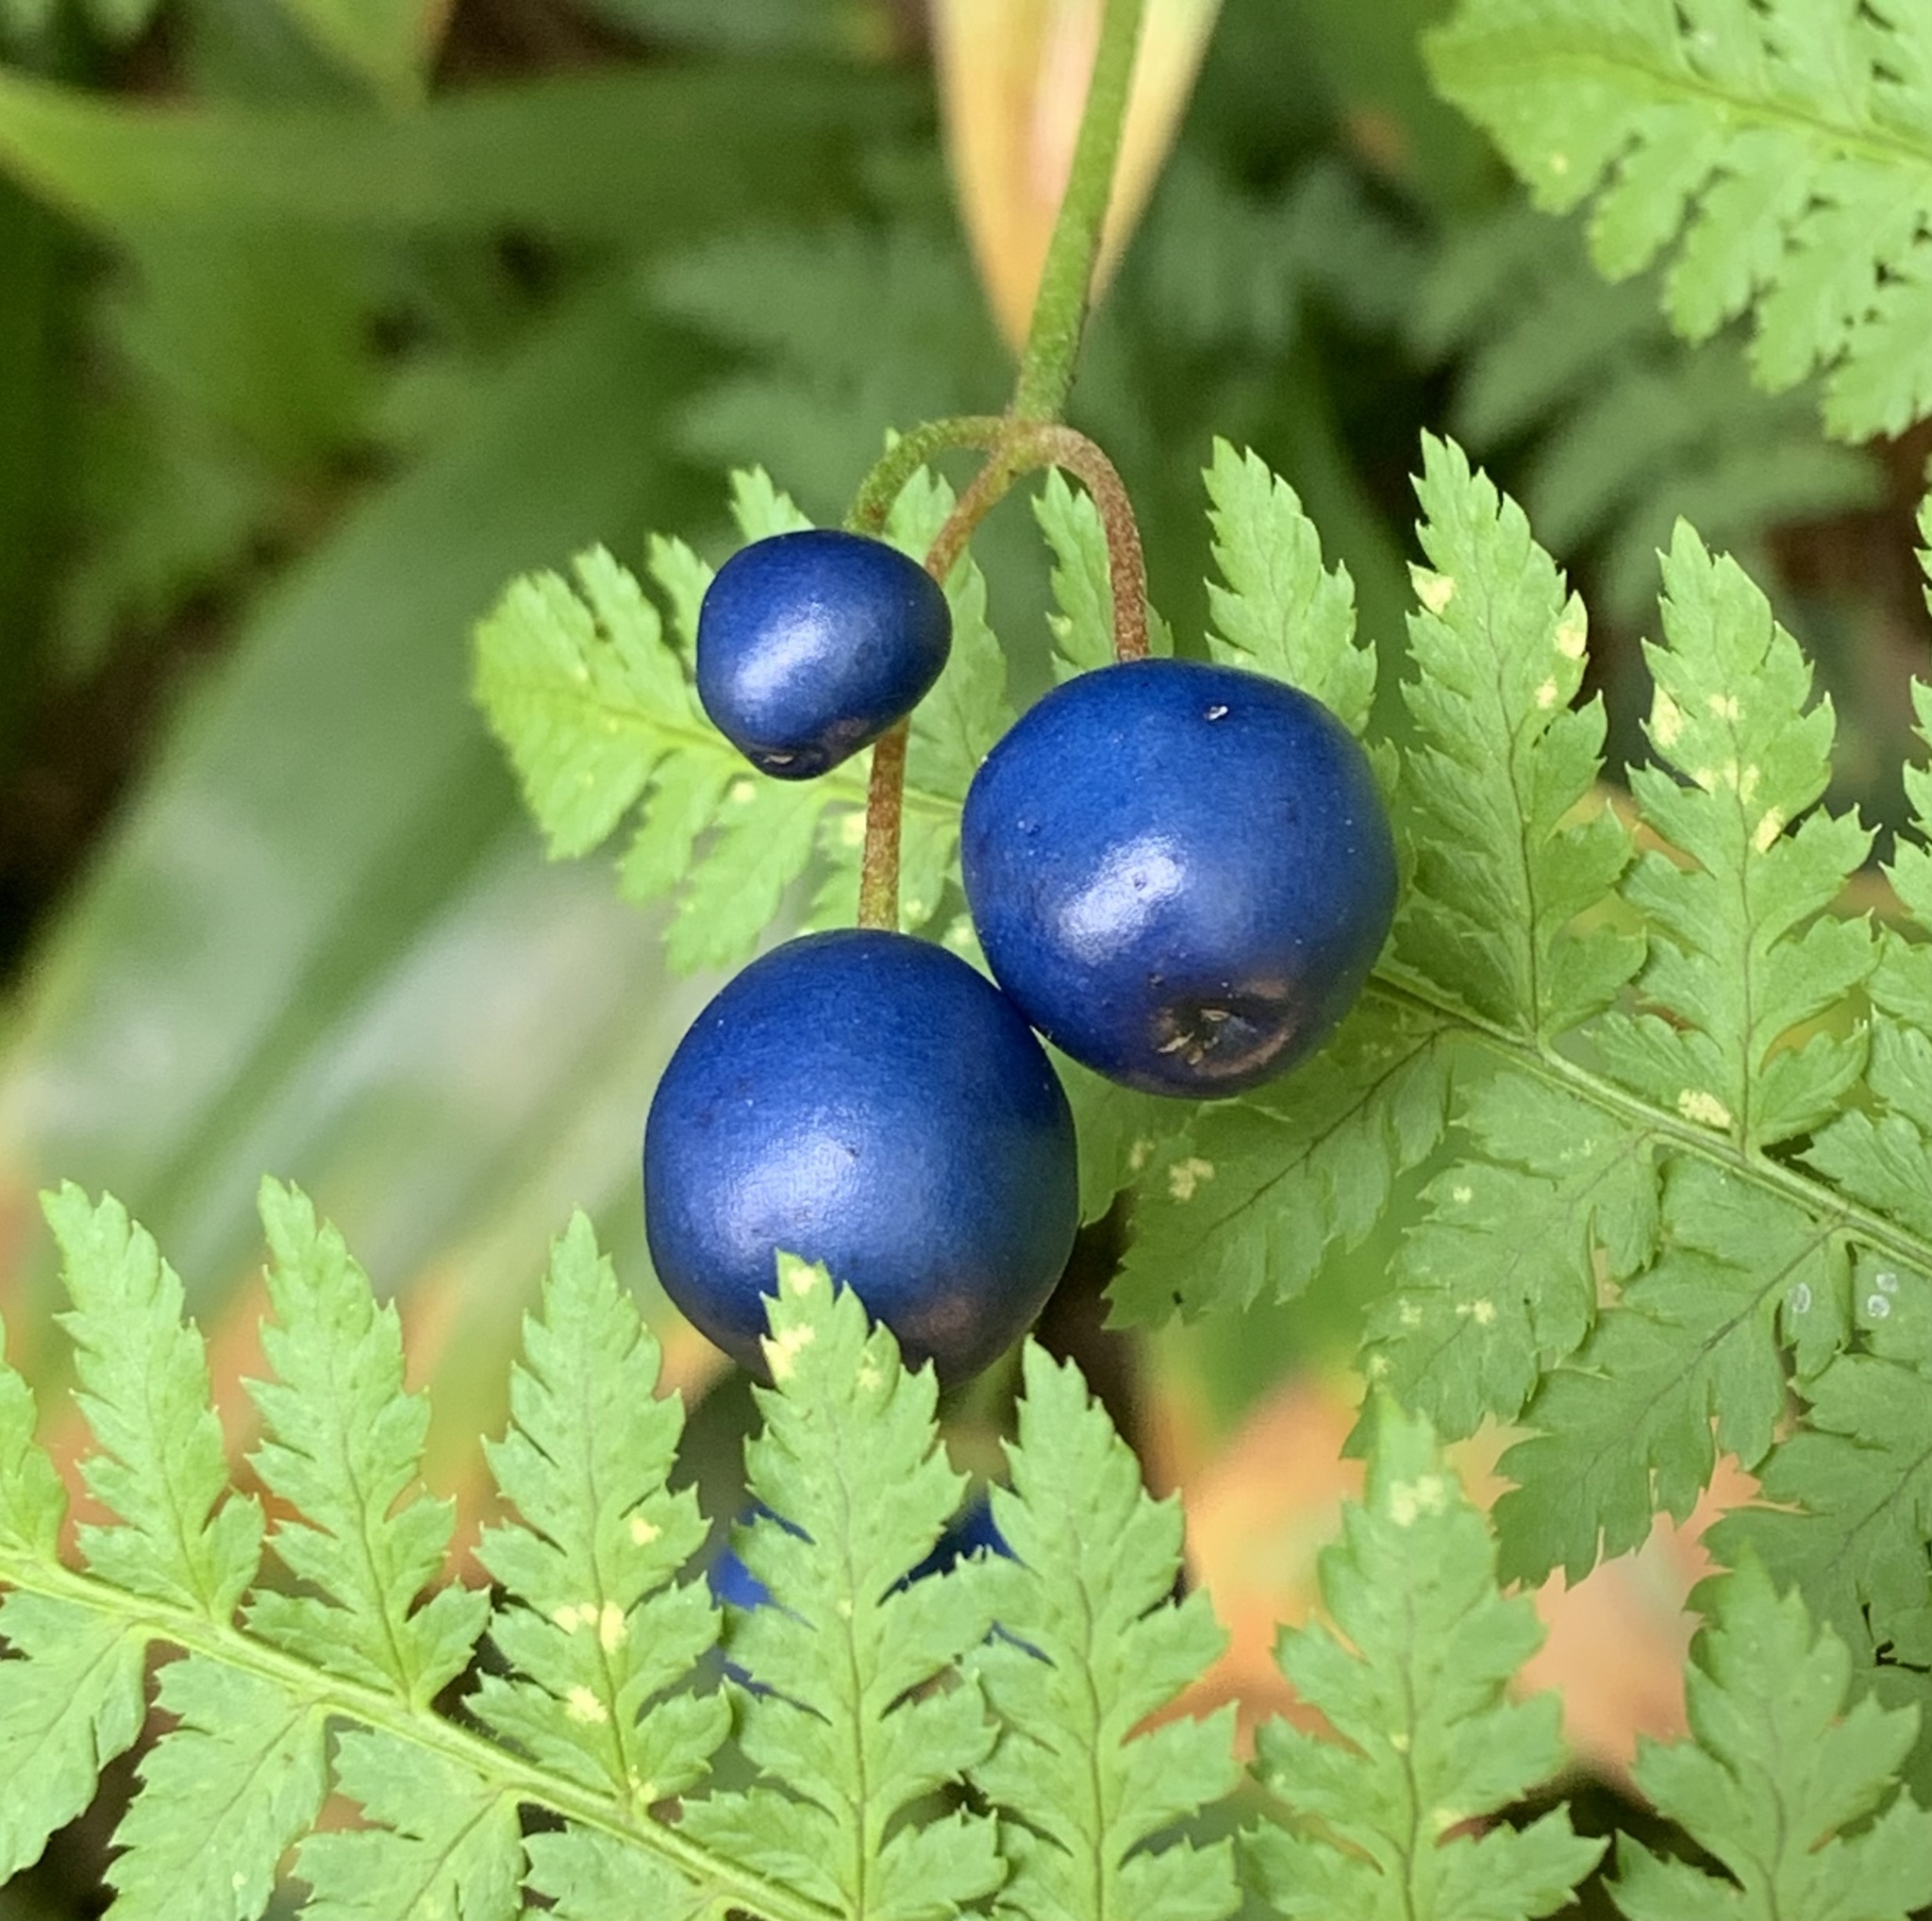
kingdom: Plantae
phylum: Tracheophyta
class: Liliopsida
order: Liliales
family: Liliaceae
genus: Clintonia
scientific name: Clintonia borealis
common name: Yellow clintonia
